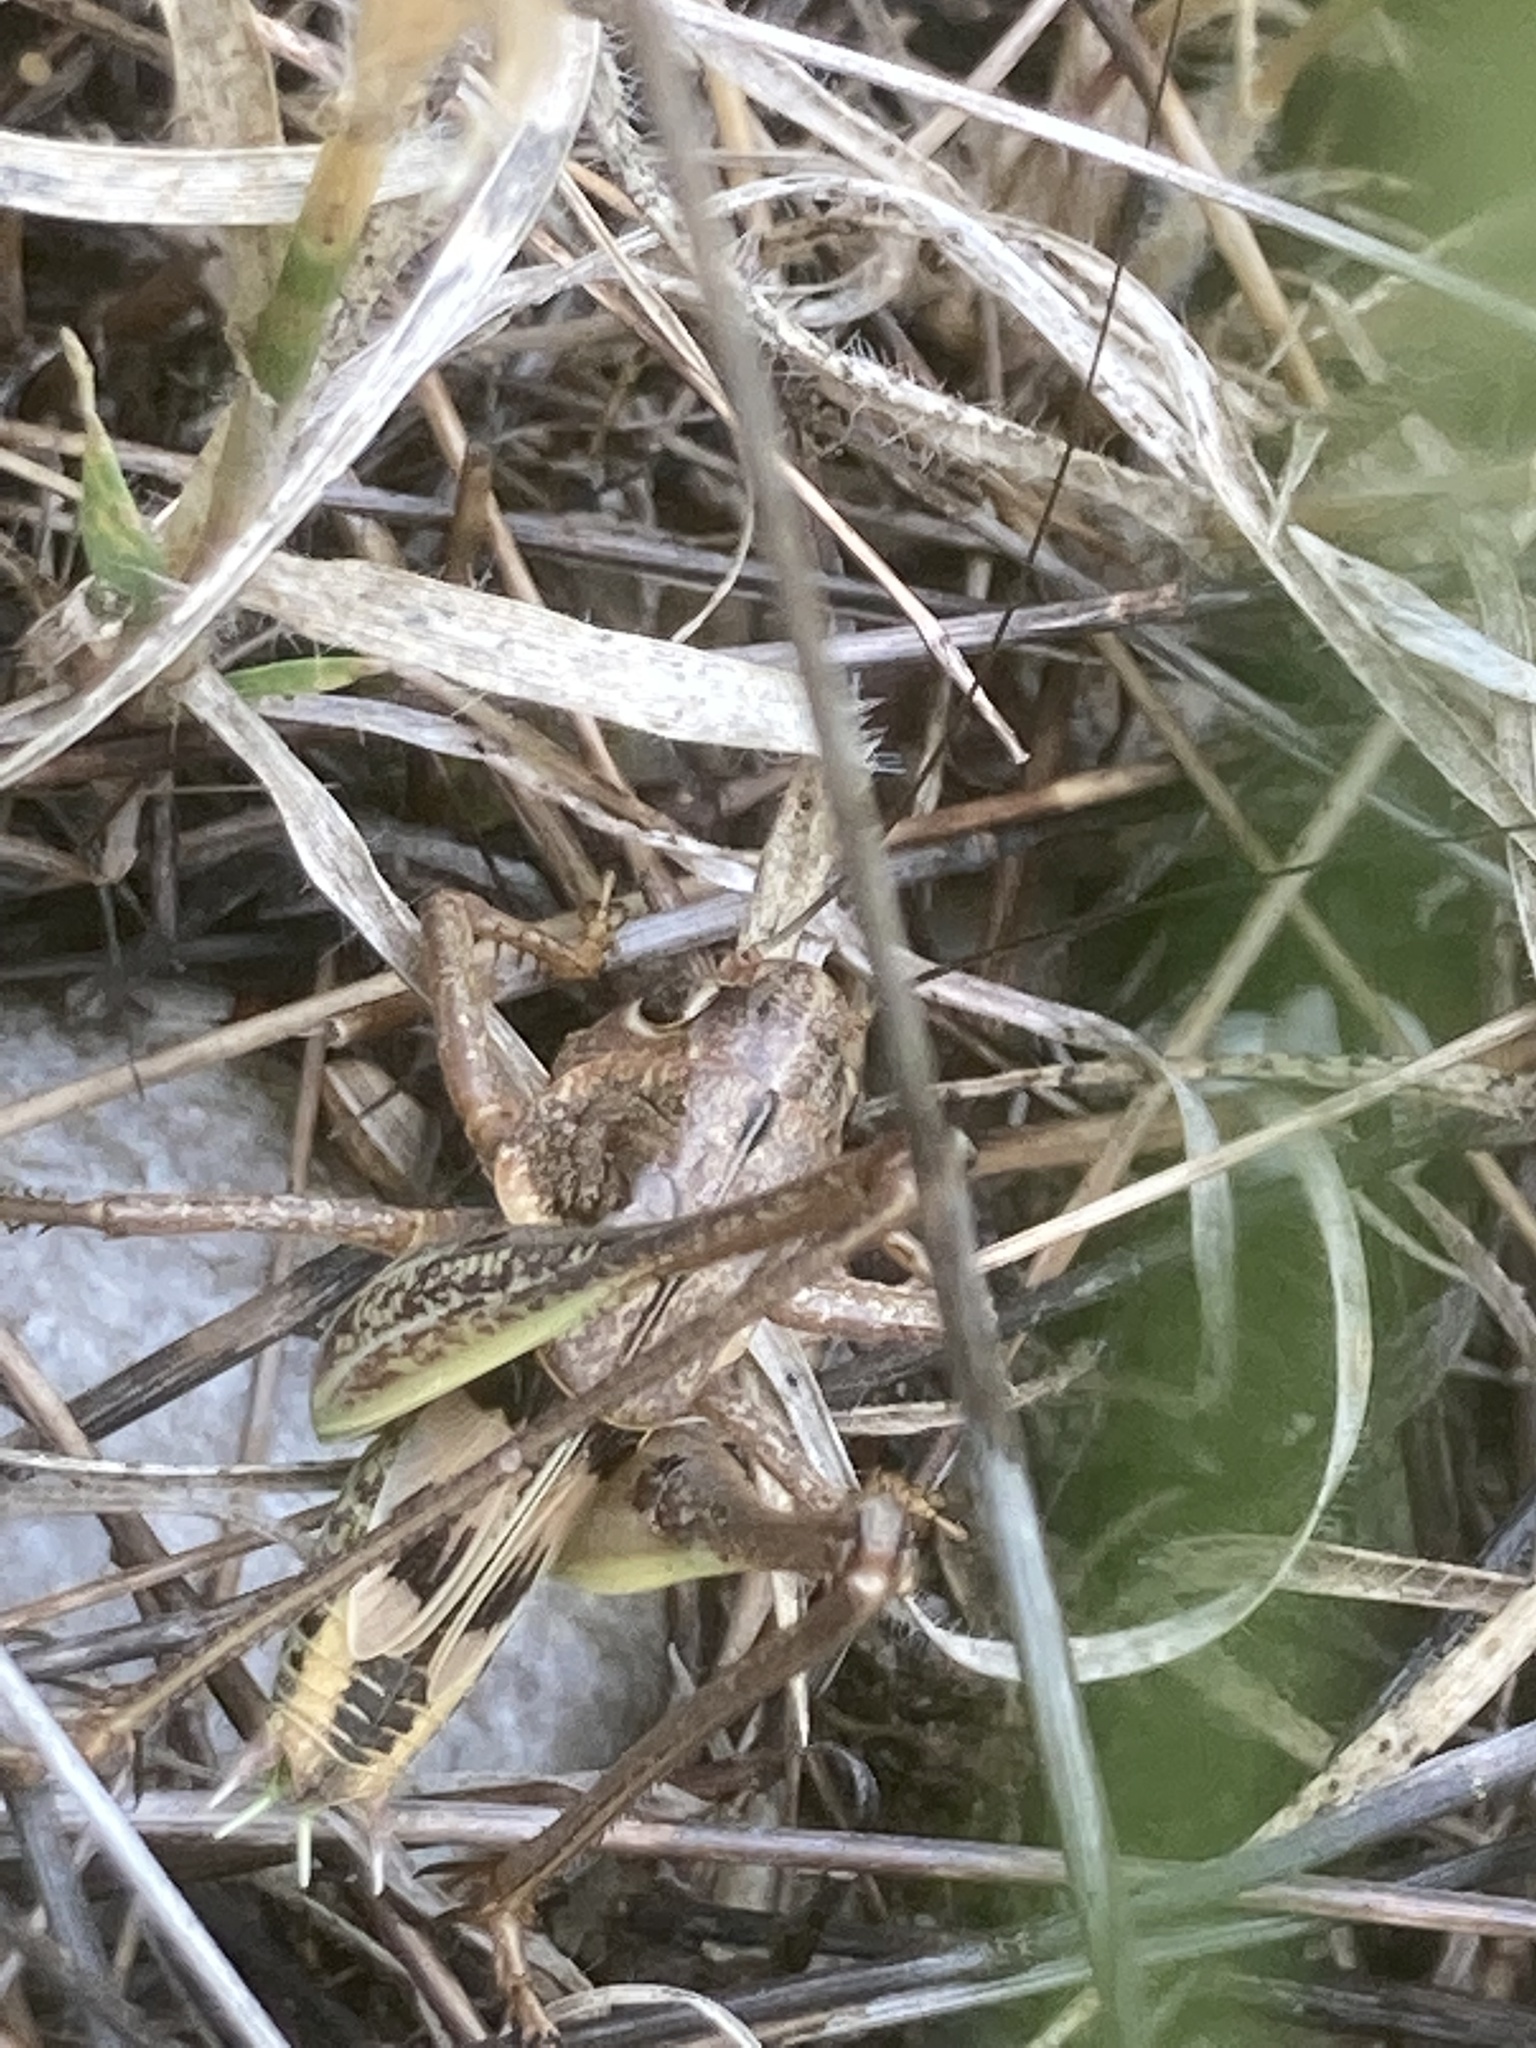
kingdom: Animalia
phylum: Arthropoda
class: Insecta
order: Orthoptera
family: Tettigoniidae
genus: Decticus
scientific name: Decticus albifrons
